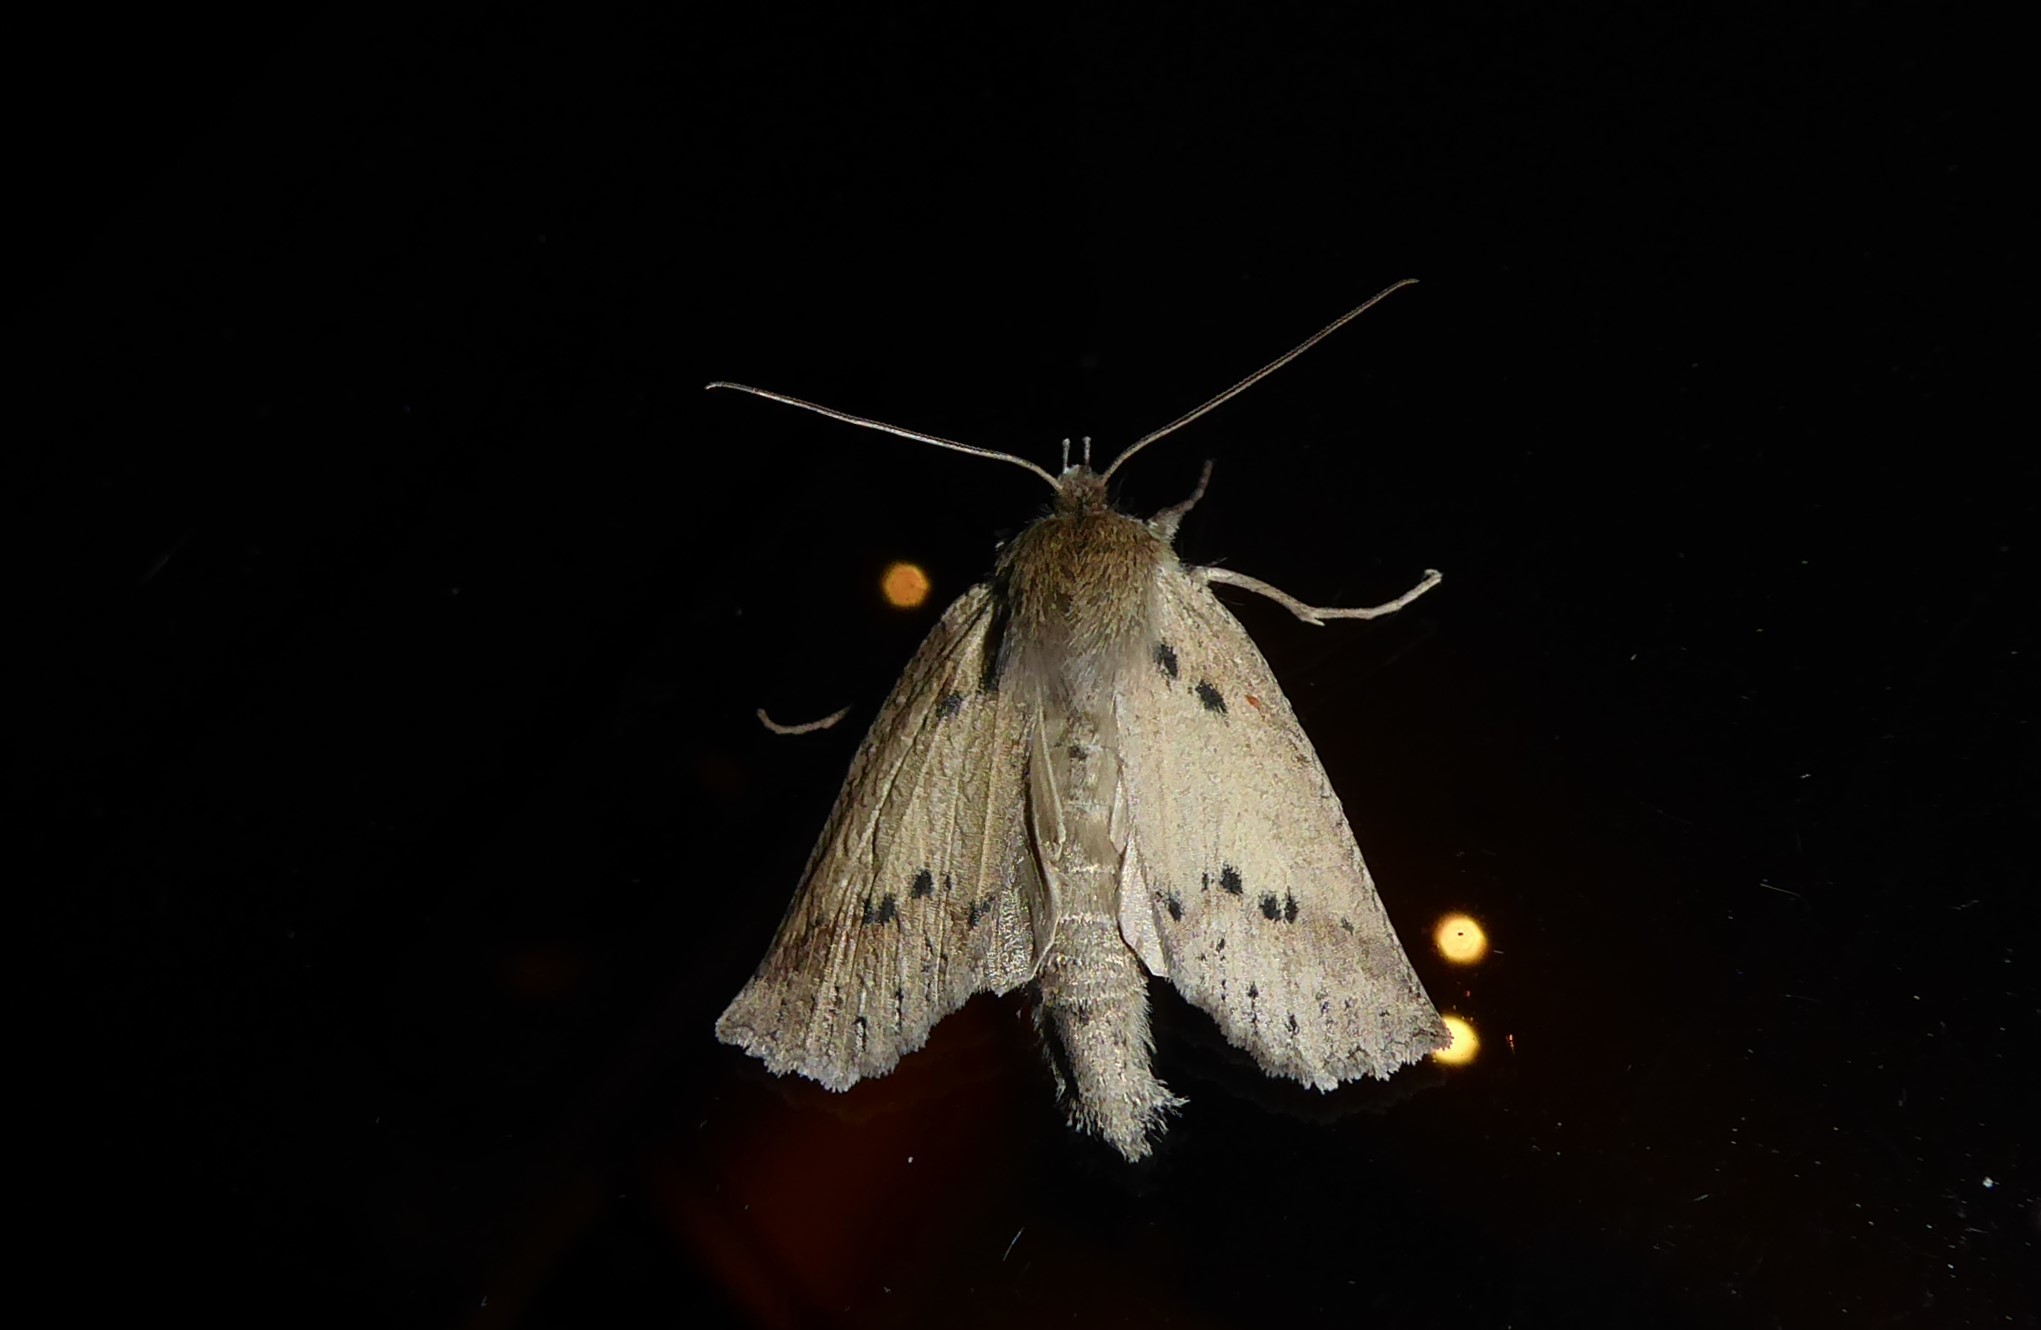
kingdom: Animalia
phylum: Arthropoda
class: Insecta
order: Lepidoptera
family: Geometridae
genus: Declana
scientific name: Declana leptomera
